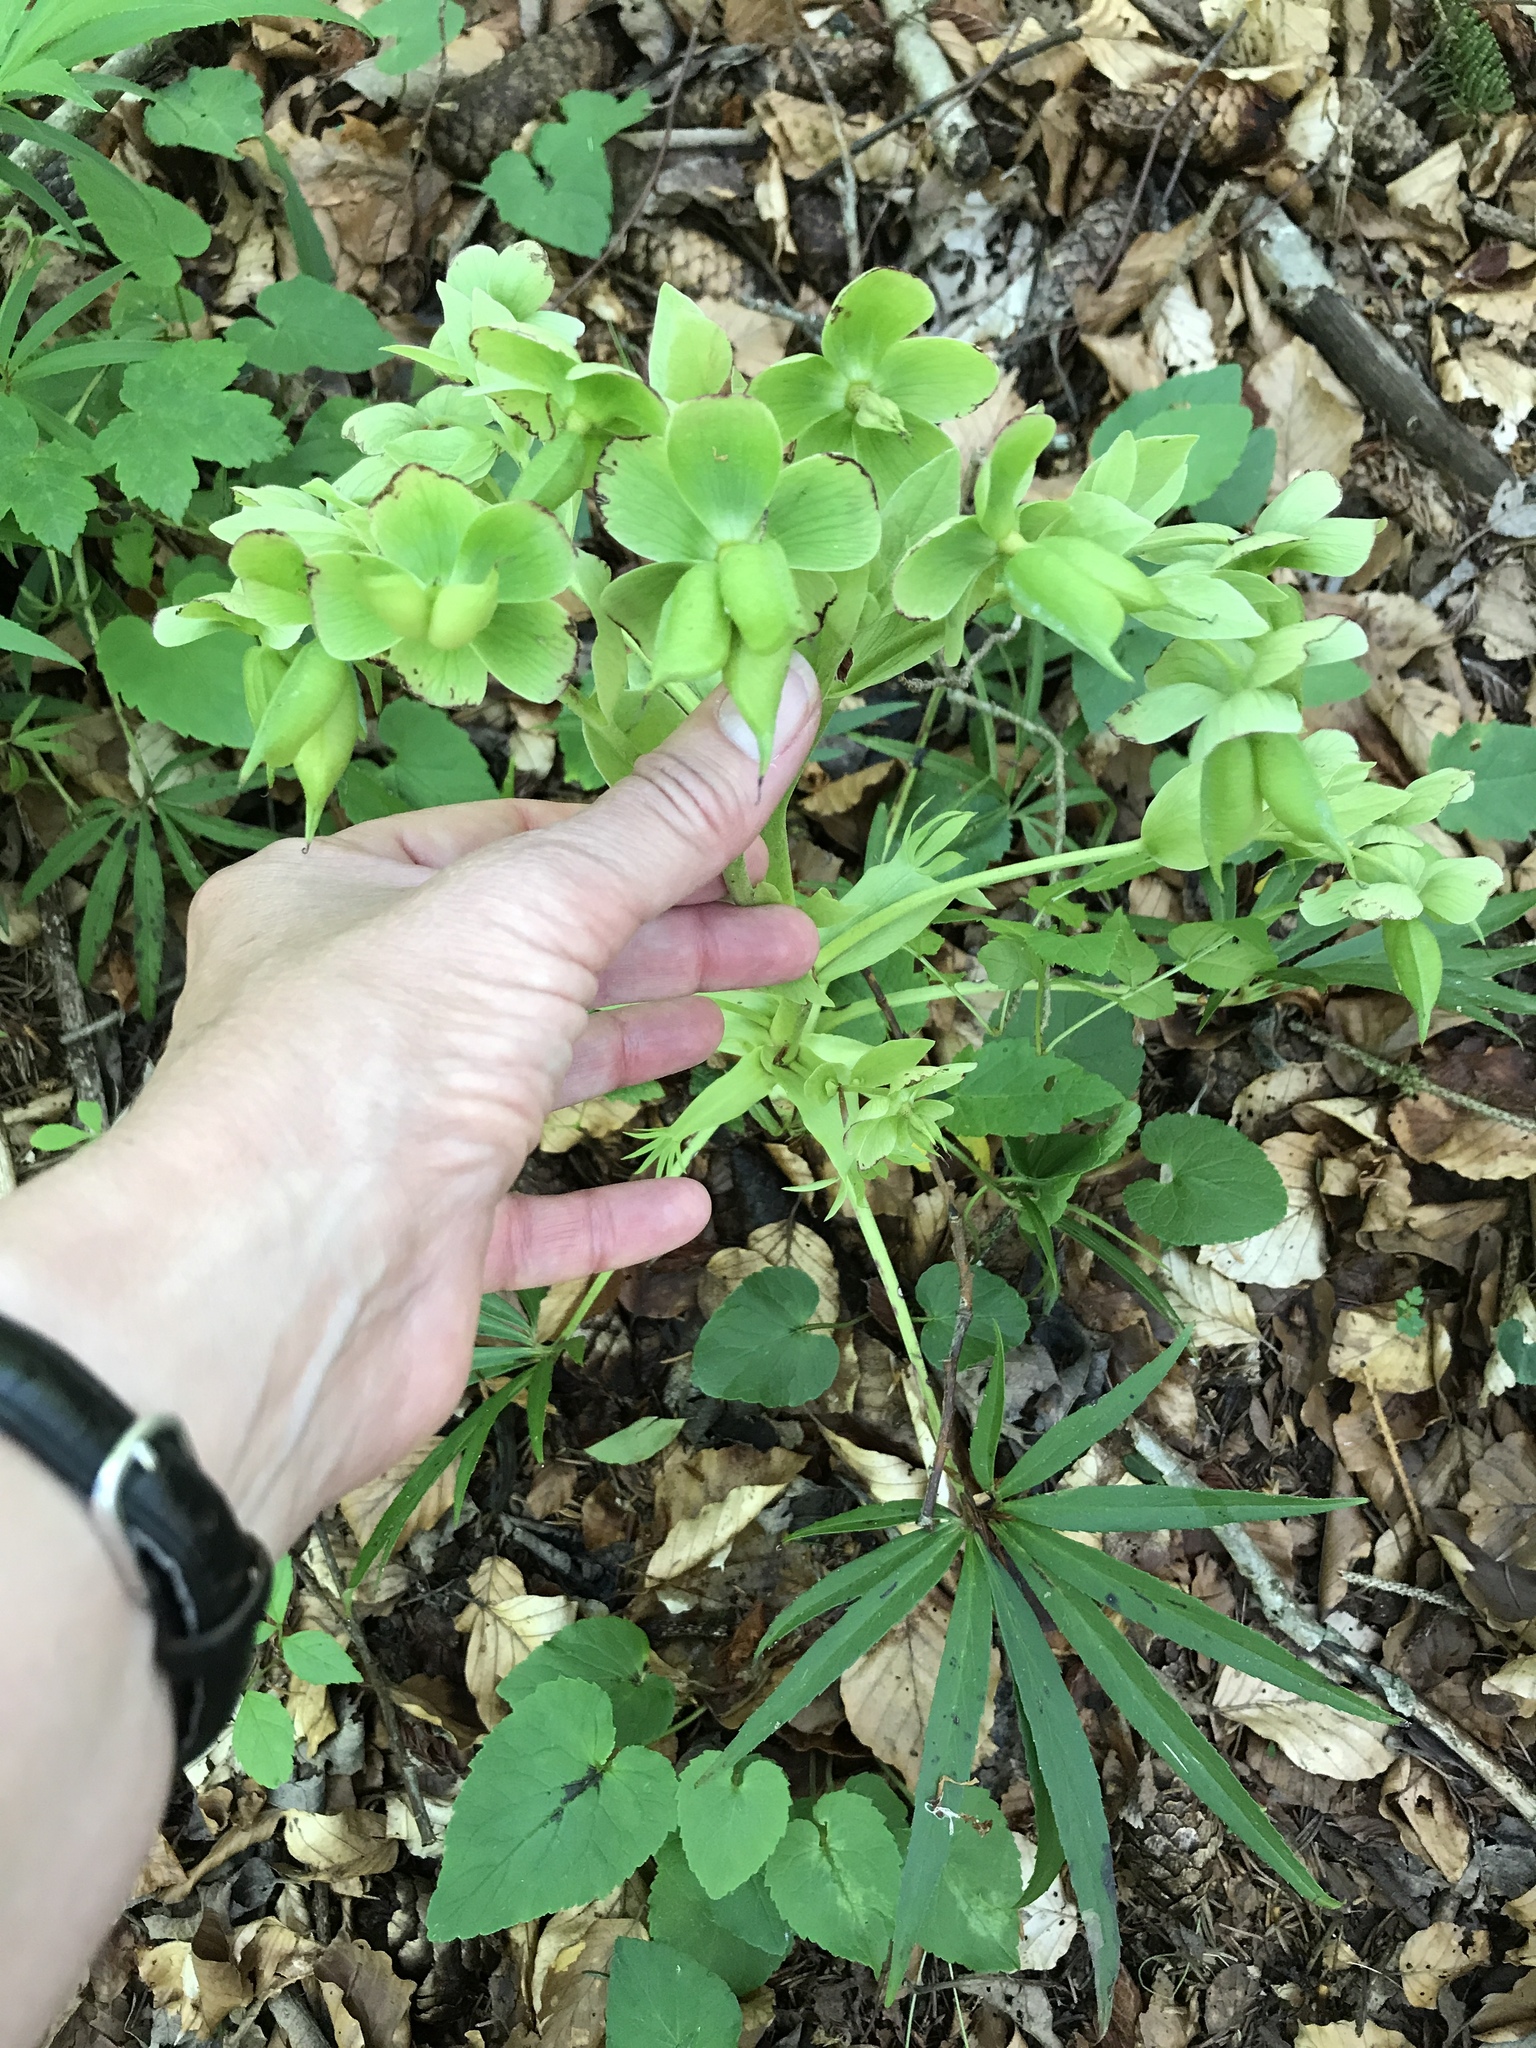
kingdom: Plantae
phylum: Tracheophyta
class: Magnoliopsida
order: Ranunculales
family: Ranunculaceae
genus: Helleborus
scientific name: Helleborus foetidus
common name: Stinking hellebore
